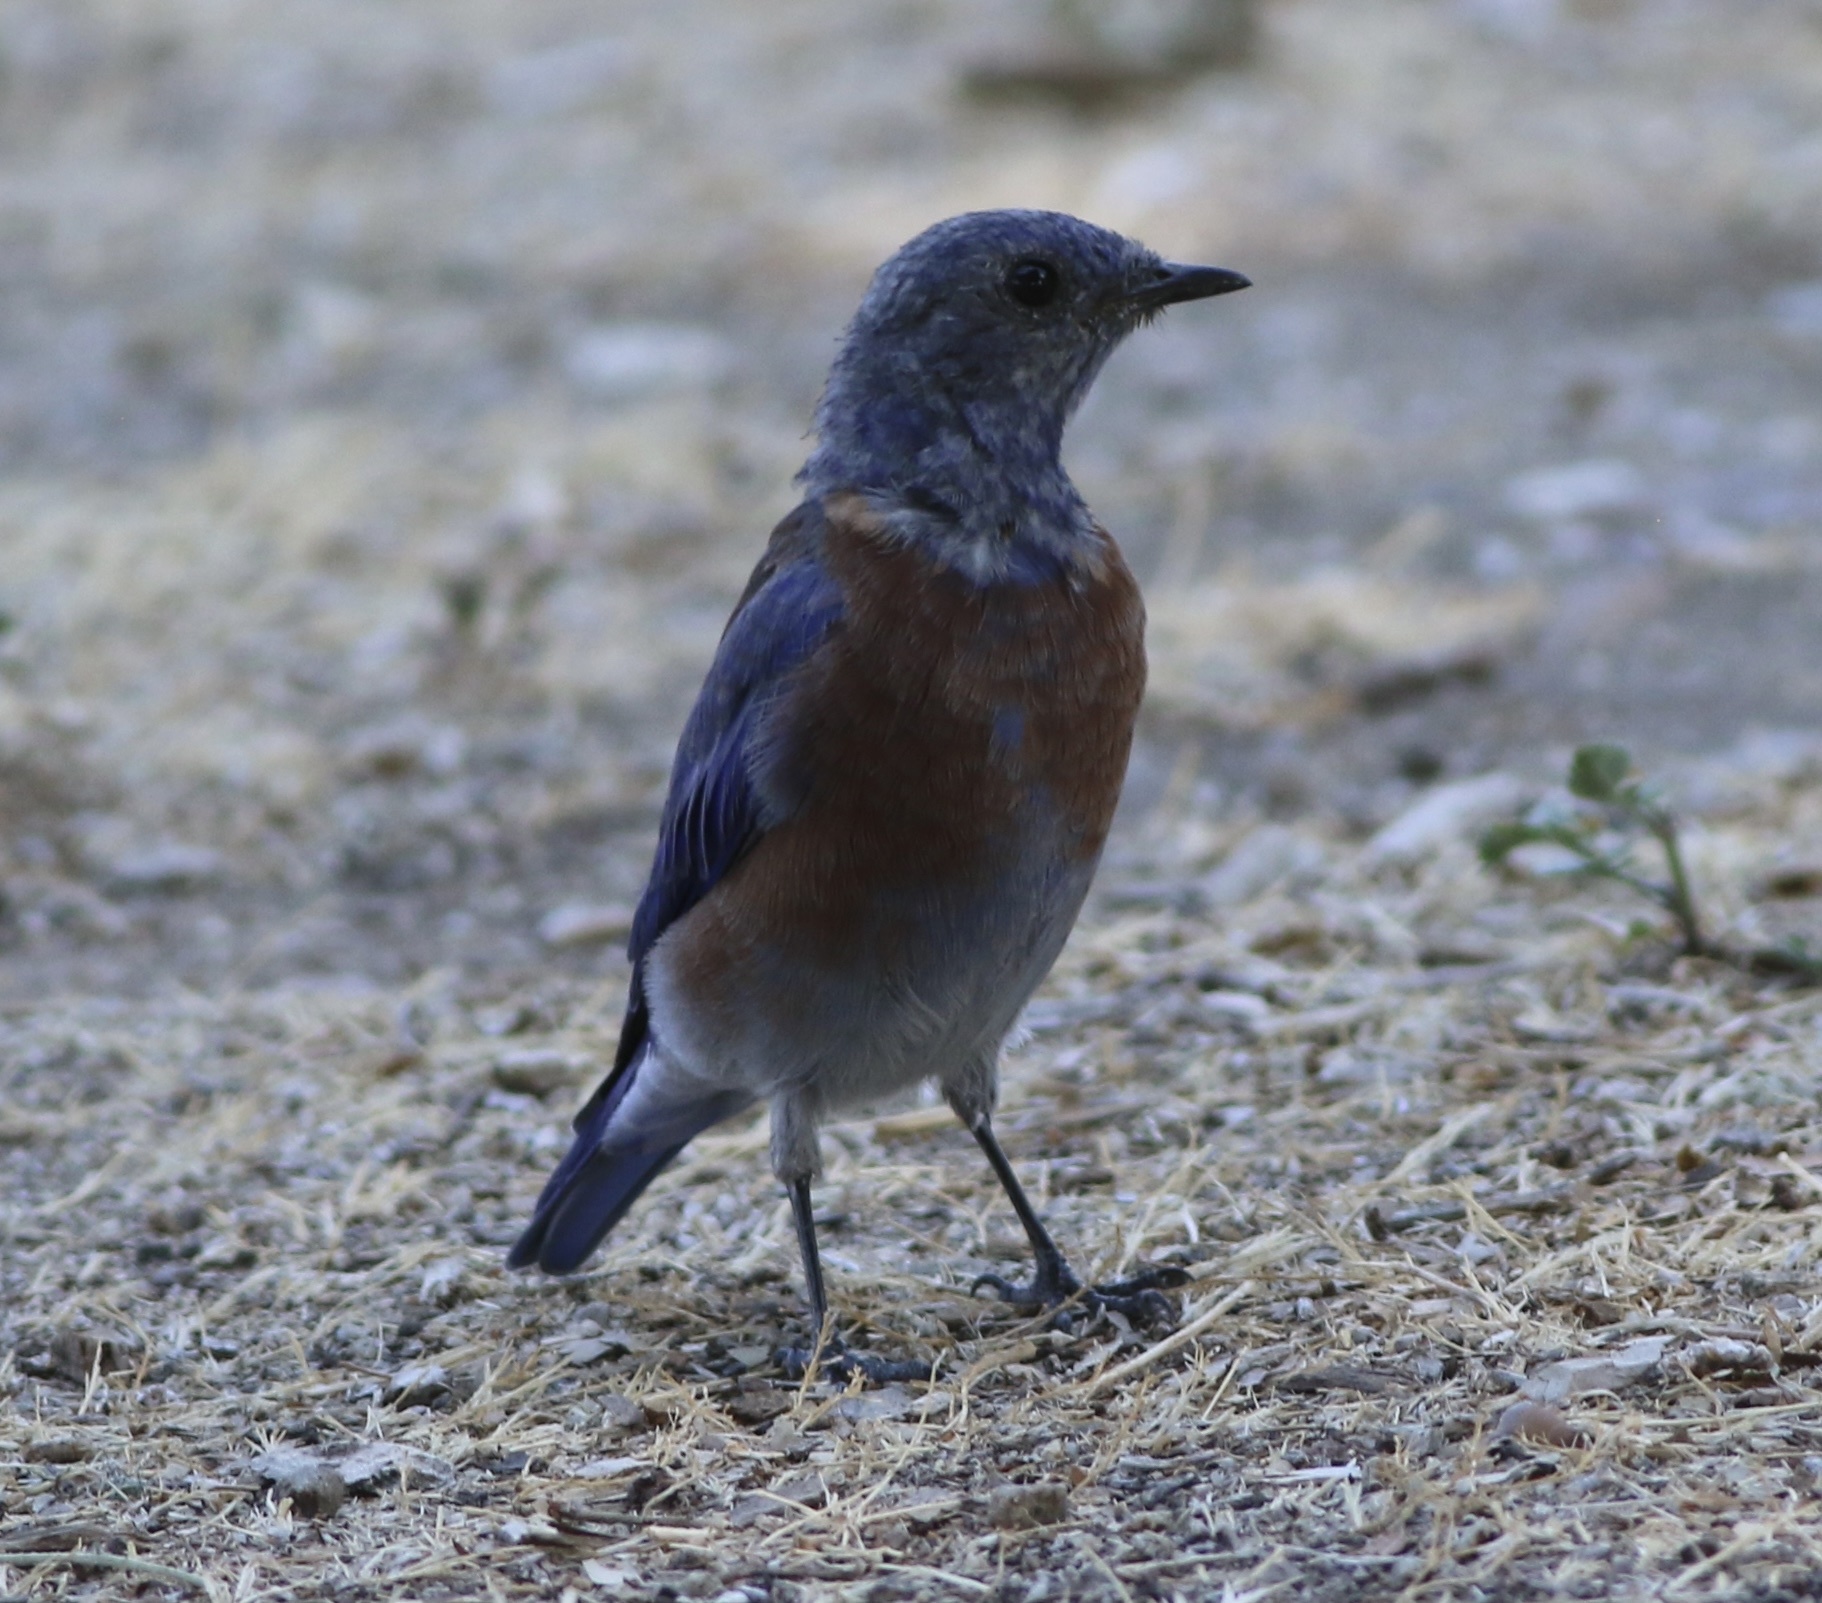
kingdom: Animalia
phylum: Chordata
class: Aves
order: Passeriformes
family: Turdidae
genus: Sialia
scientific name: Sialia mexicana
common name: Western bluebird
